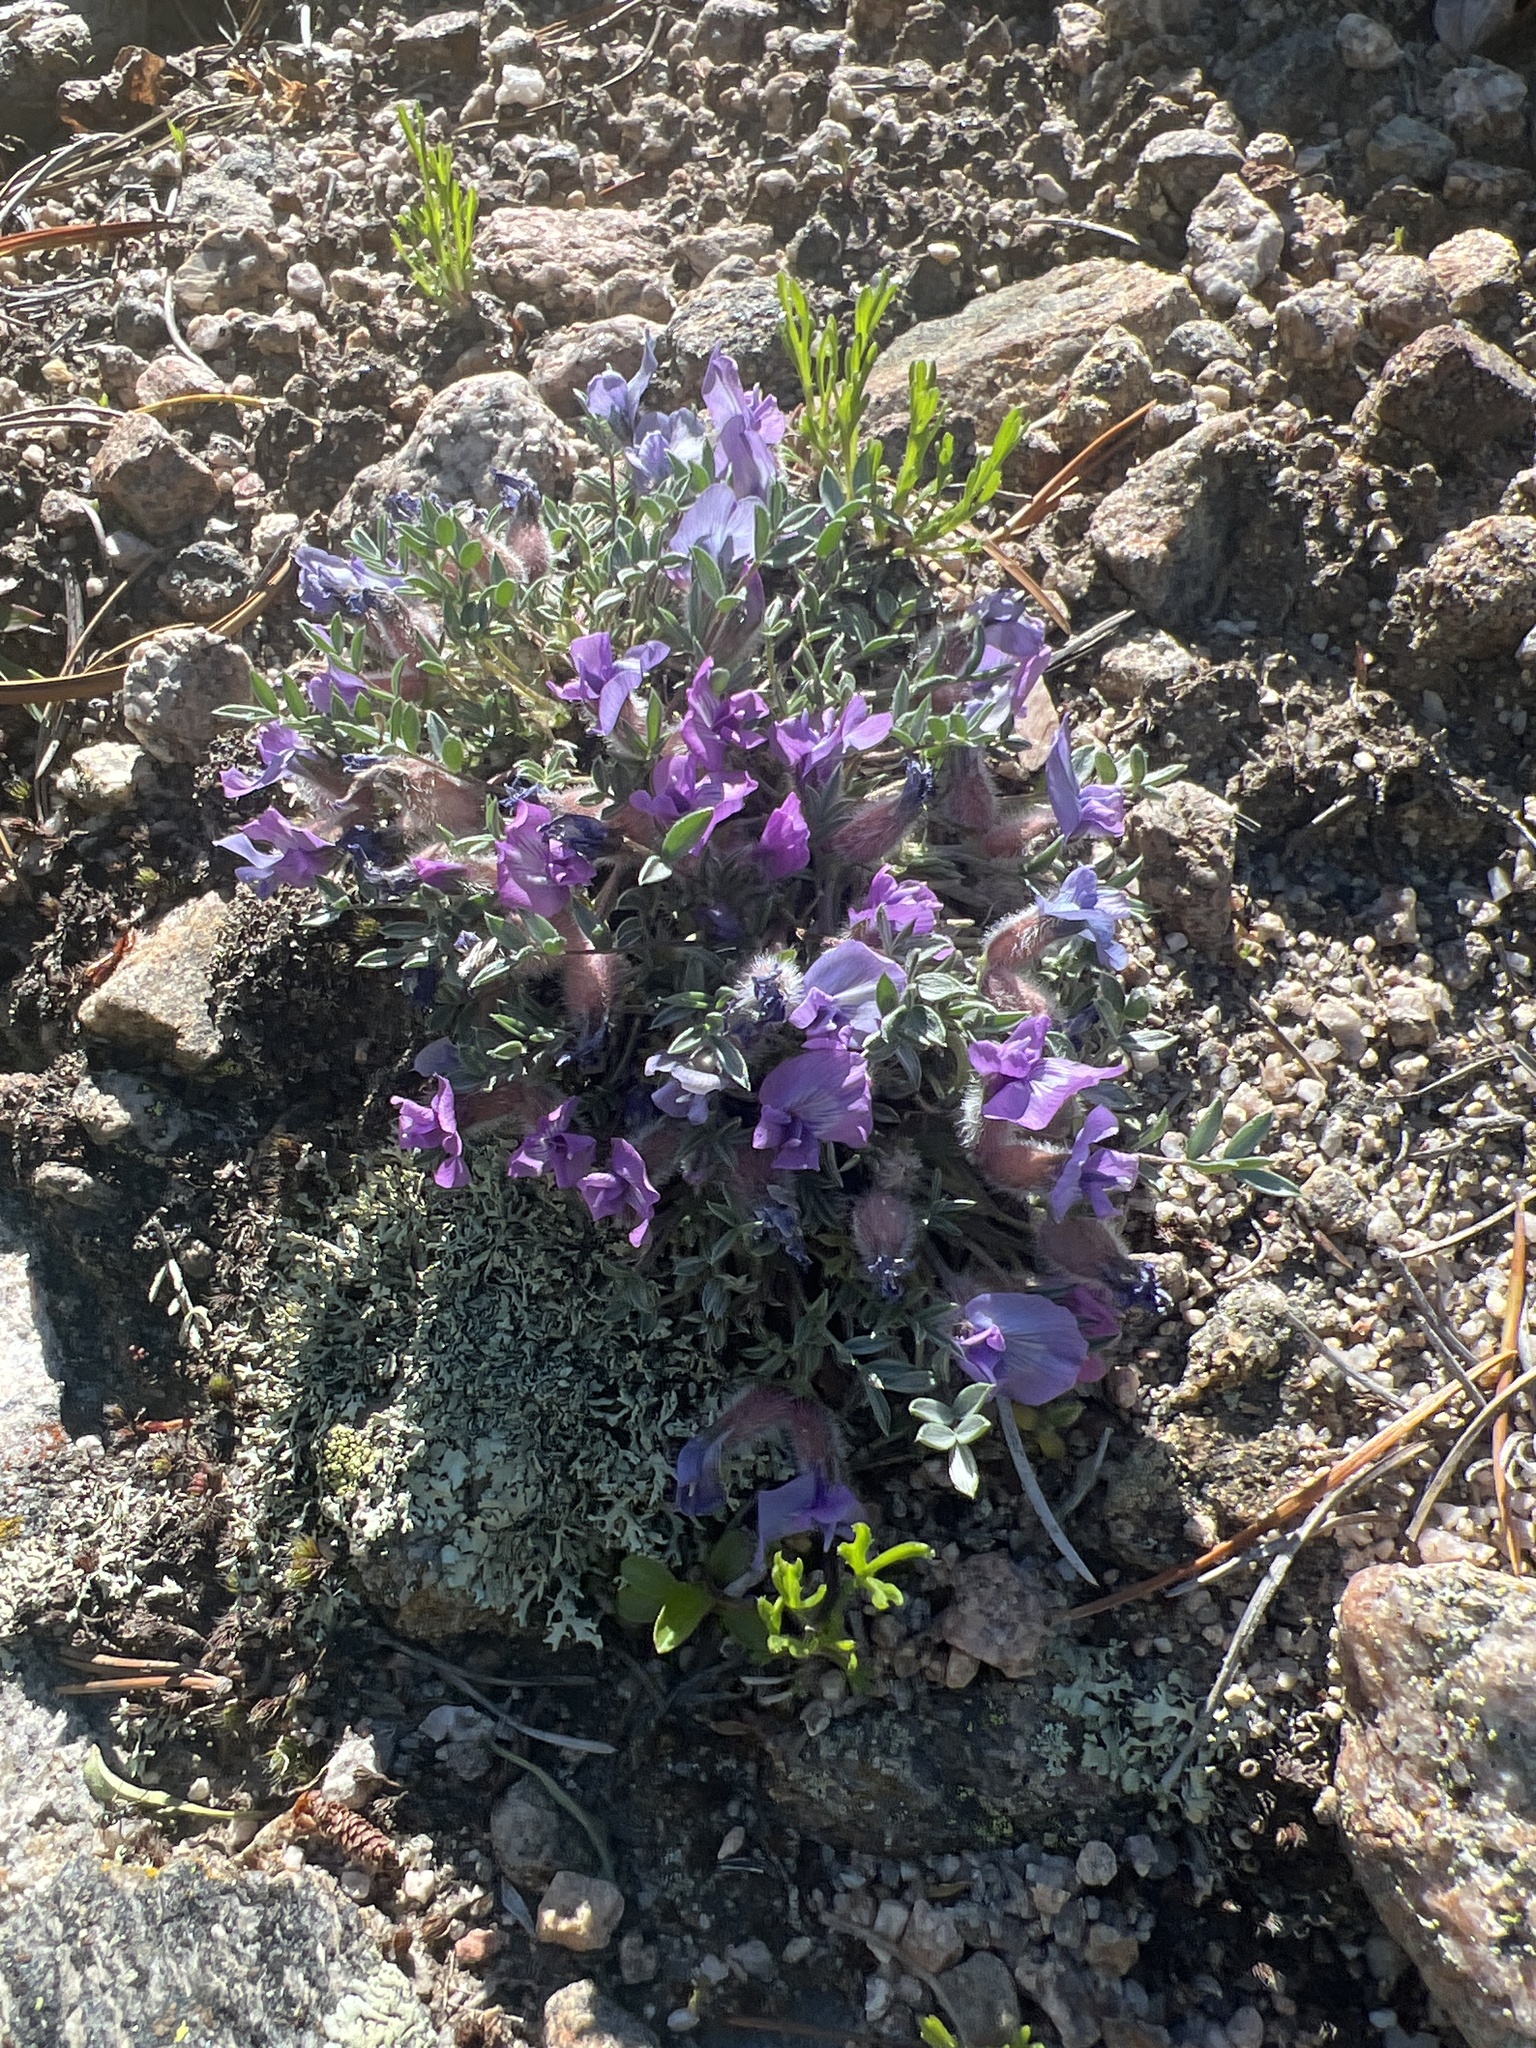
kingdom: Plantae
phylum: Tracheophyta
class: Magnoliopsida
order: Fabales
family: Fabaceae
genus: Oxytropis
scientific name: Oxytropis multiceps
